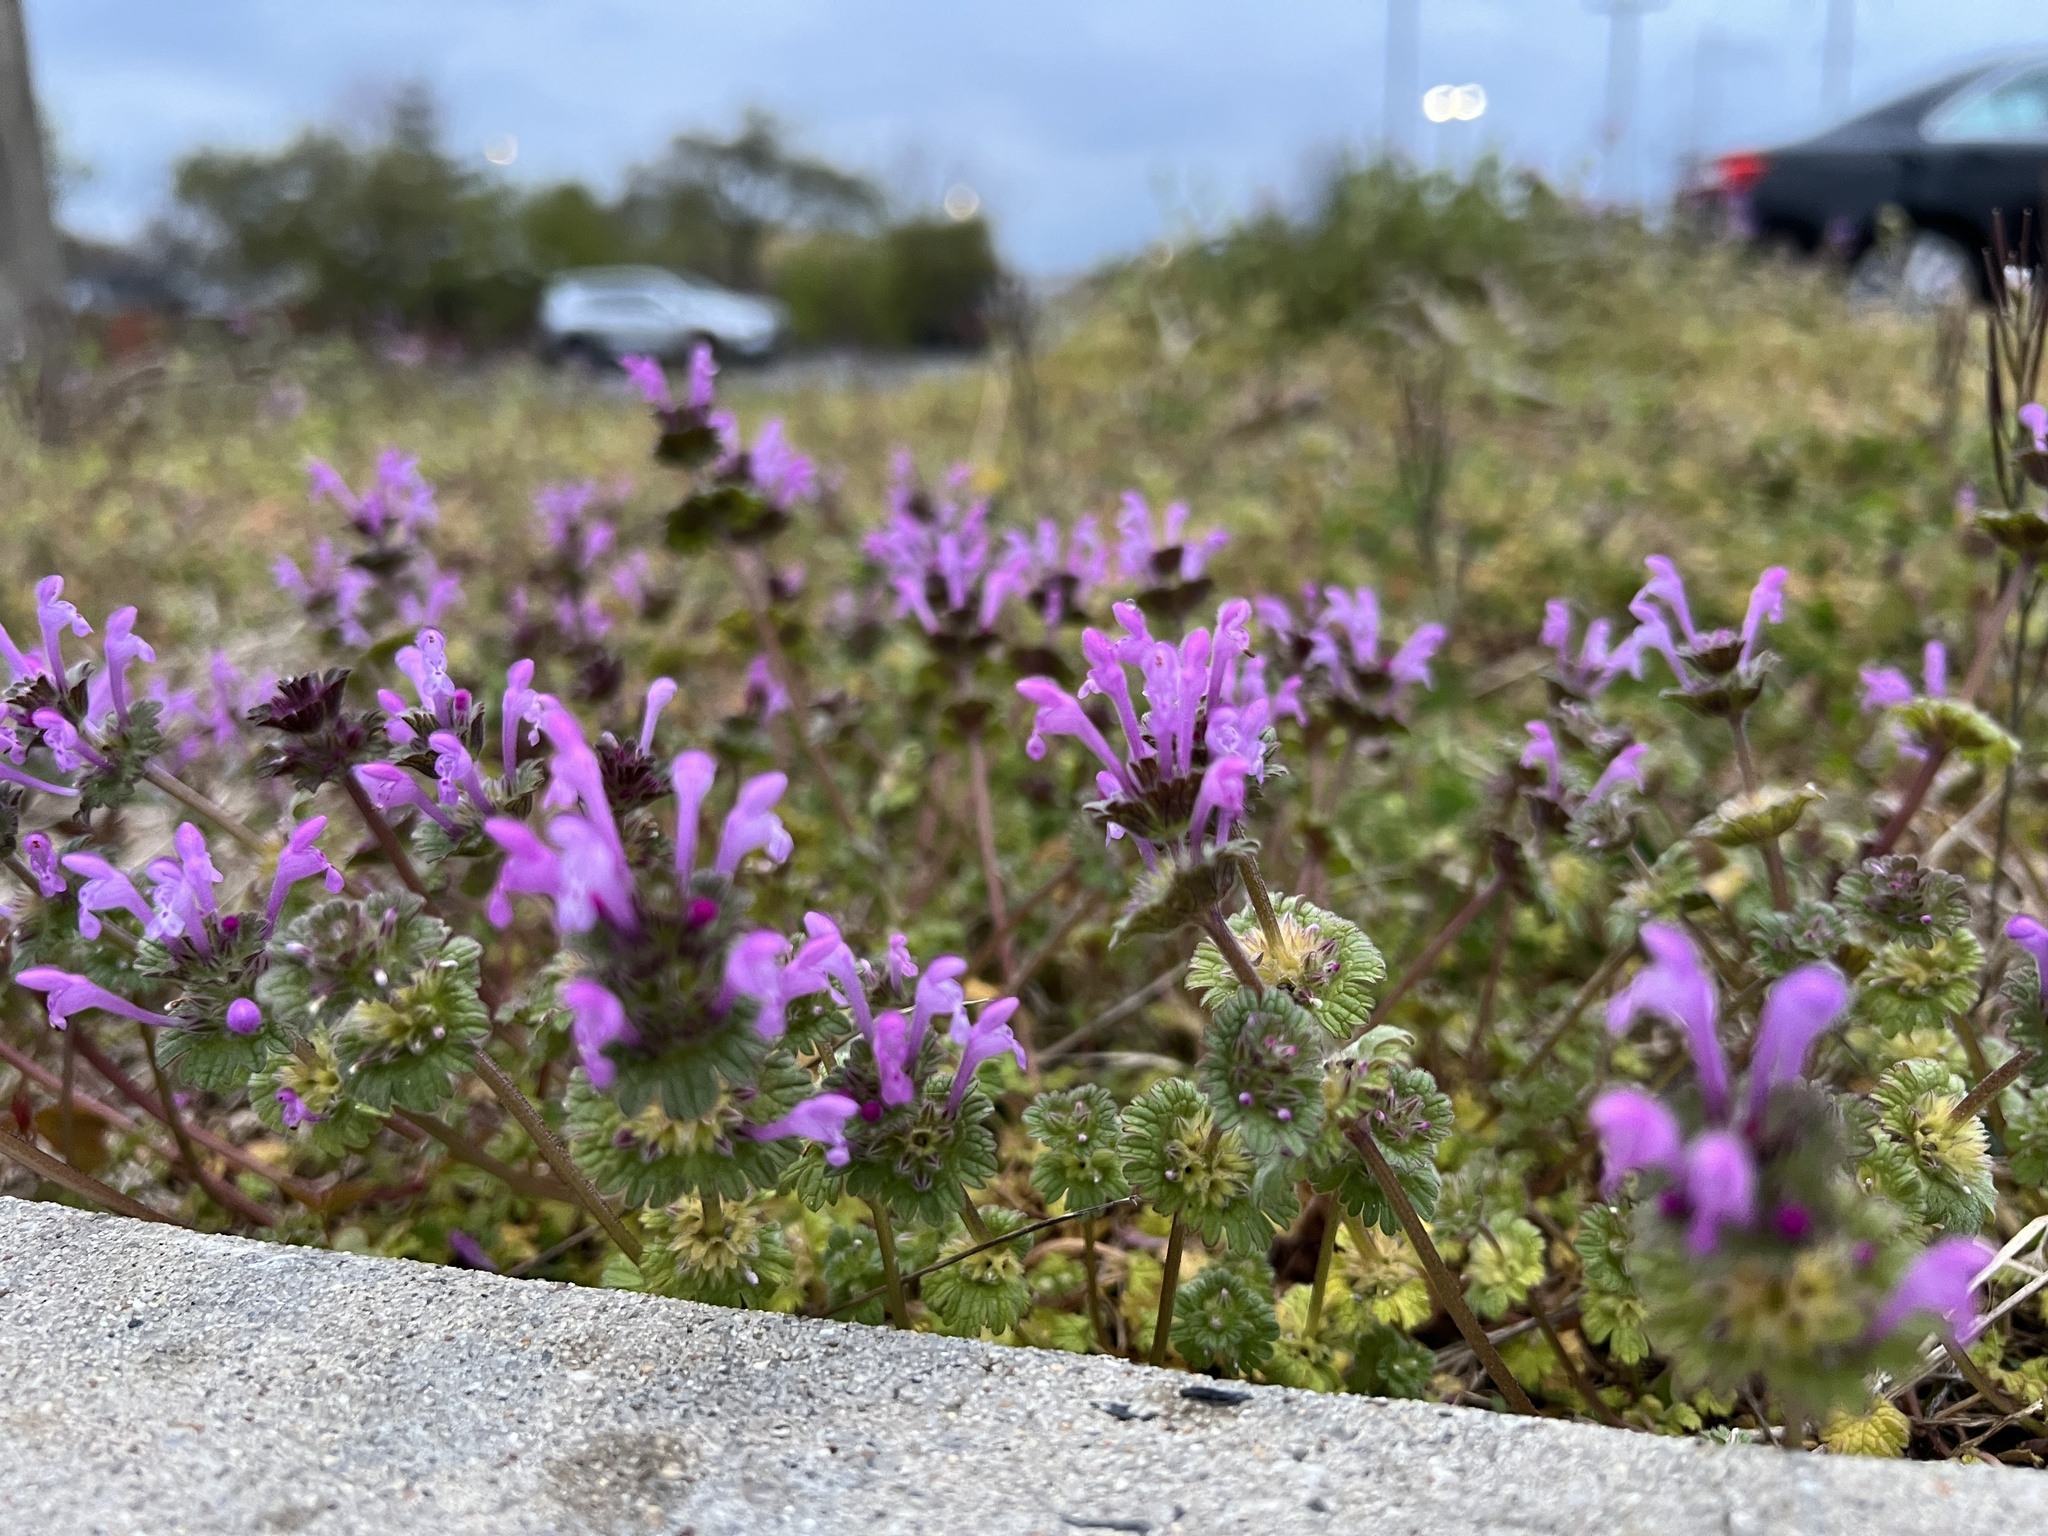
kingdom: Plantae
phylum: Tracheophyta
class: Magnoliopsida
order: Lamiales
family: Lamiaceae
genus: Lamium
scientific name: Lamium amplexicaule
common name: Henbit dead-nettle
